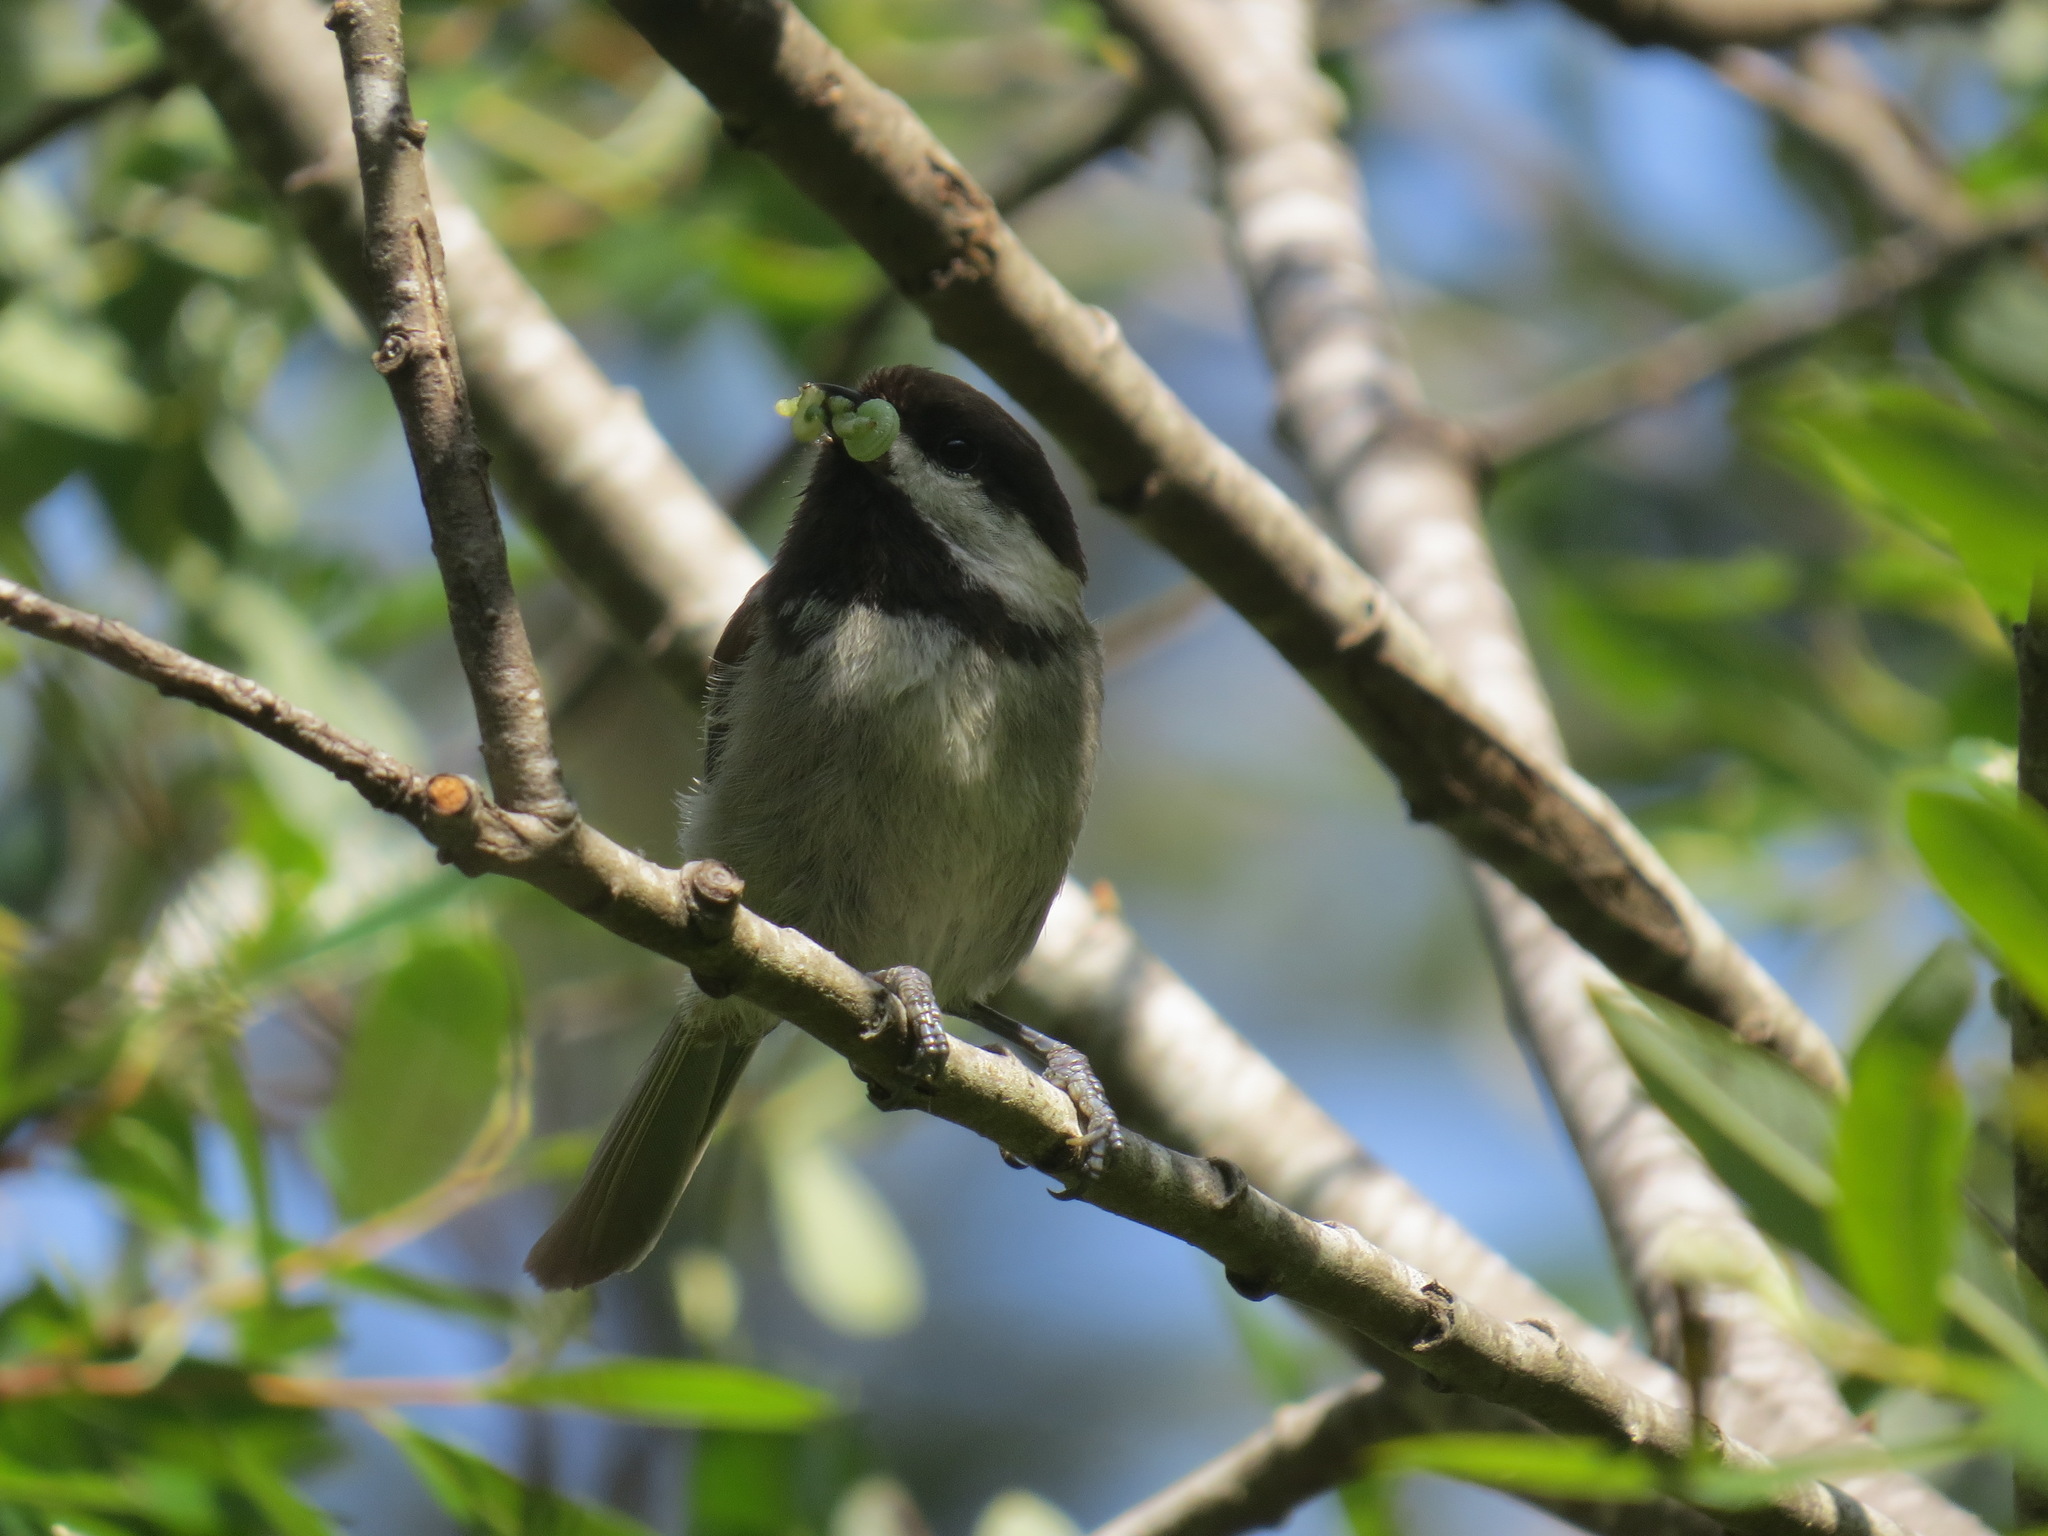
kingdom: Animalia
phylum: Chordata
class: Aves
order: Passeriformes
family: Paridae
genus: Poecile
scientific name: Poecile rufescens
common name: Chestnut-backed chickadee
